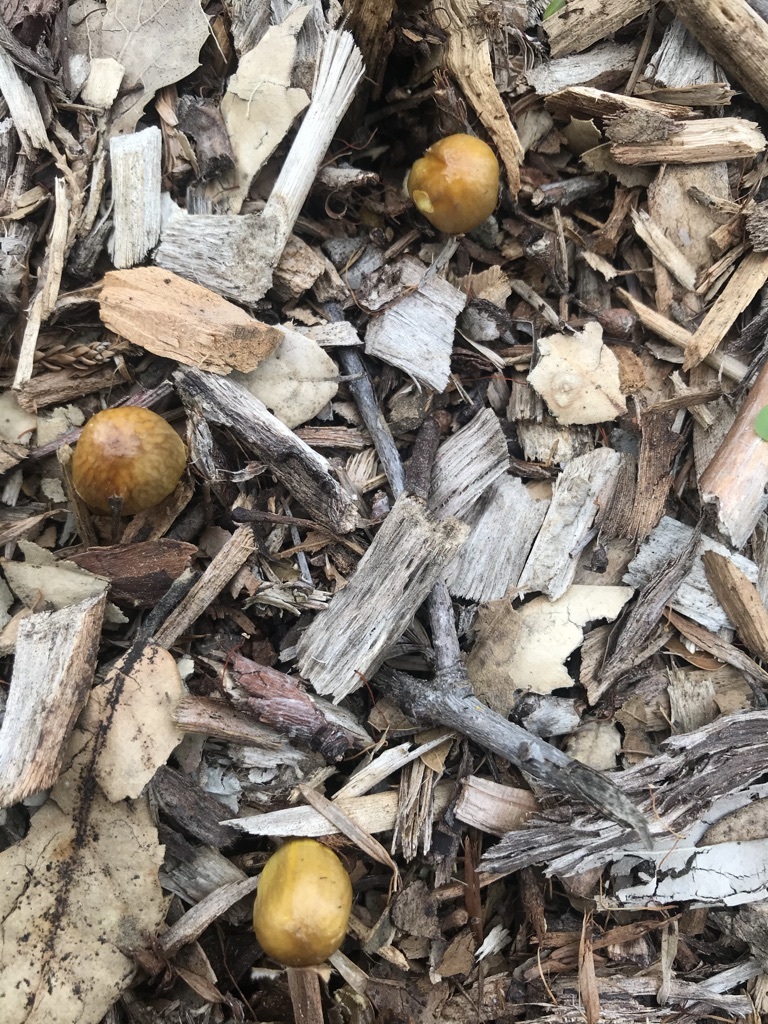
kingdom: Fungi
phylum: Basidiomycota
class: Agaricomycetes
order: Agaricales
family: Bolbitiaceae
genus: Bolbitius
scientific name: Bolbitius titubans
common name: Yellow fieldcap
